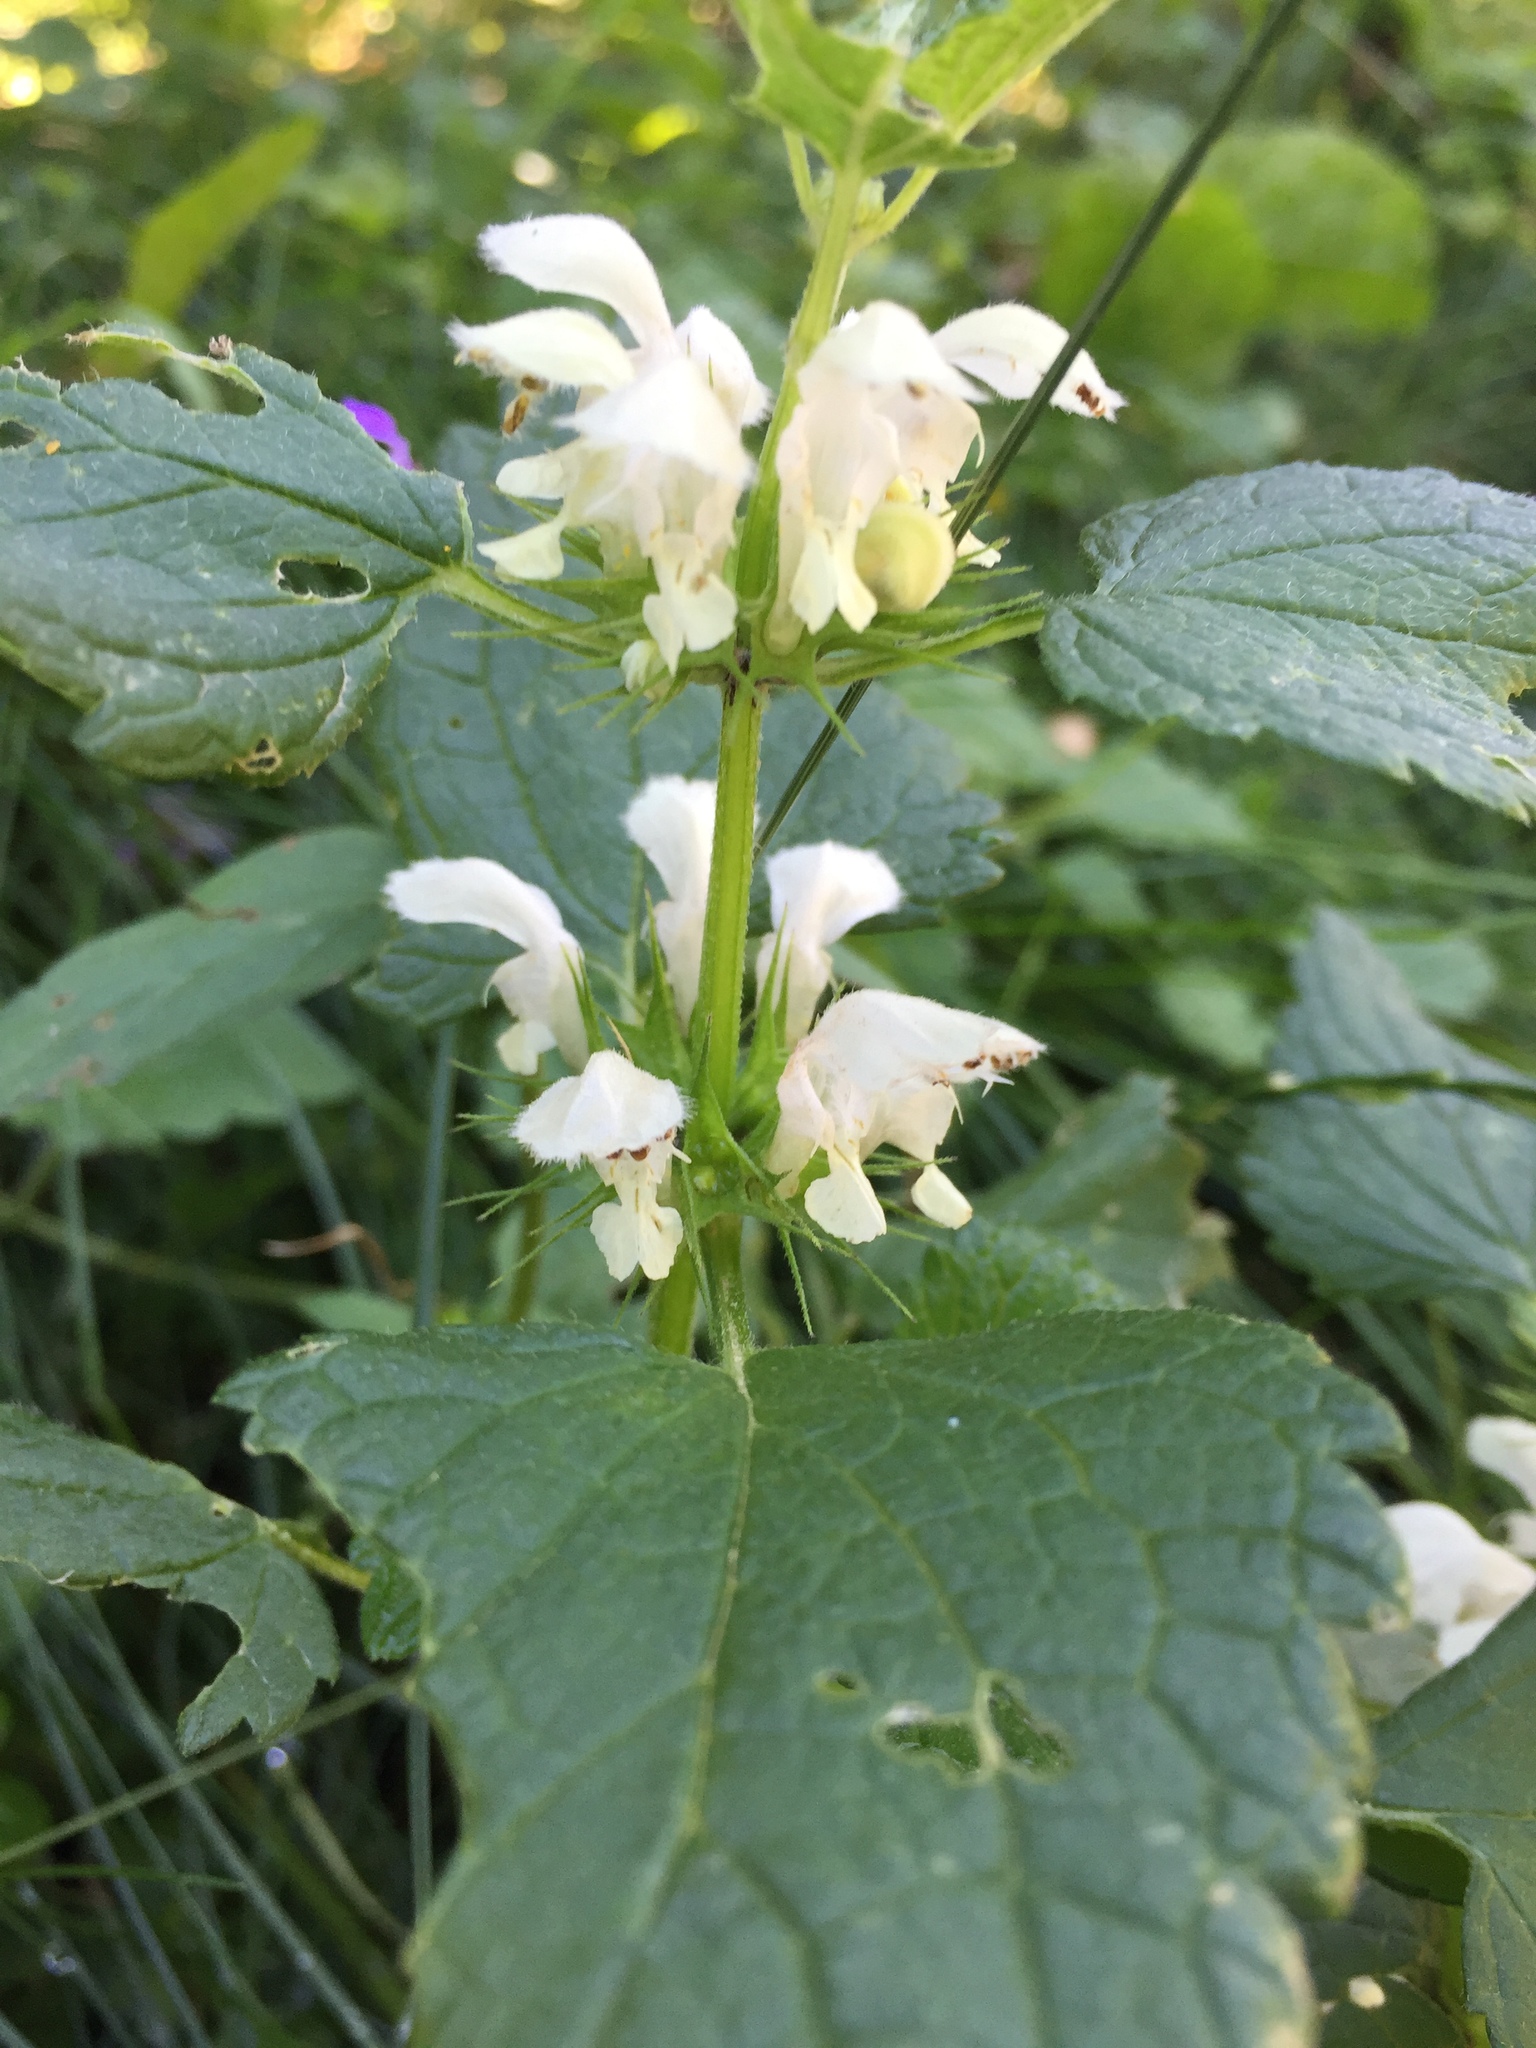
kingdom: Plantae
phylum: Tracheophyta
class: Magnoliopsida
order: Lamiales
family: Lamiaceae
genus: Lamium
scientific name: Lamium album
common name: White dead-nettle
